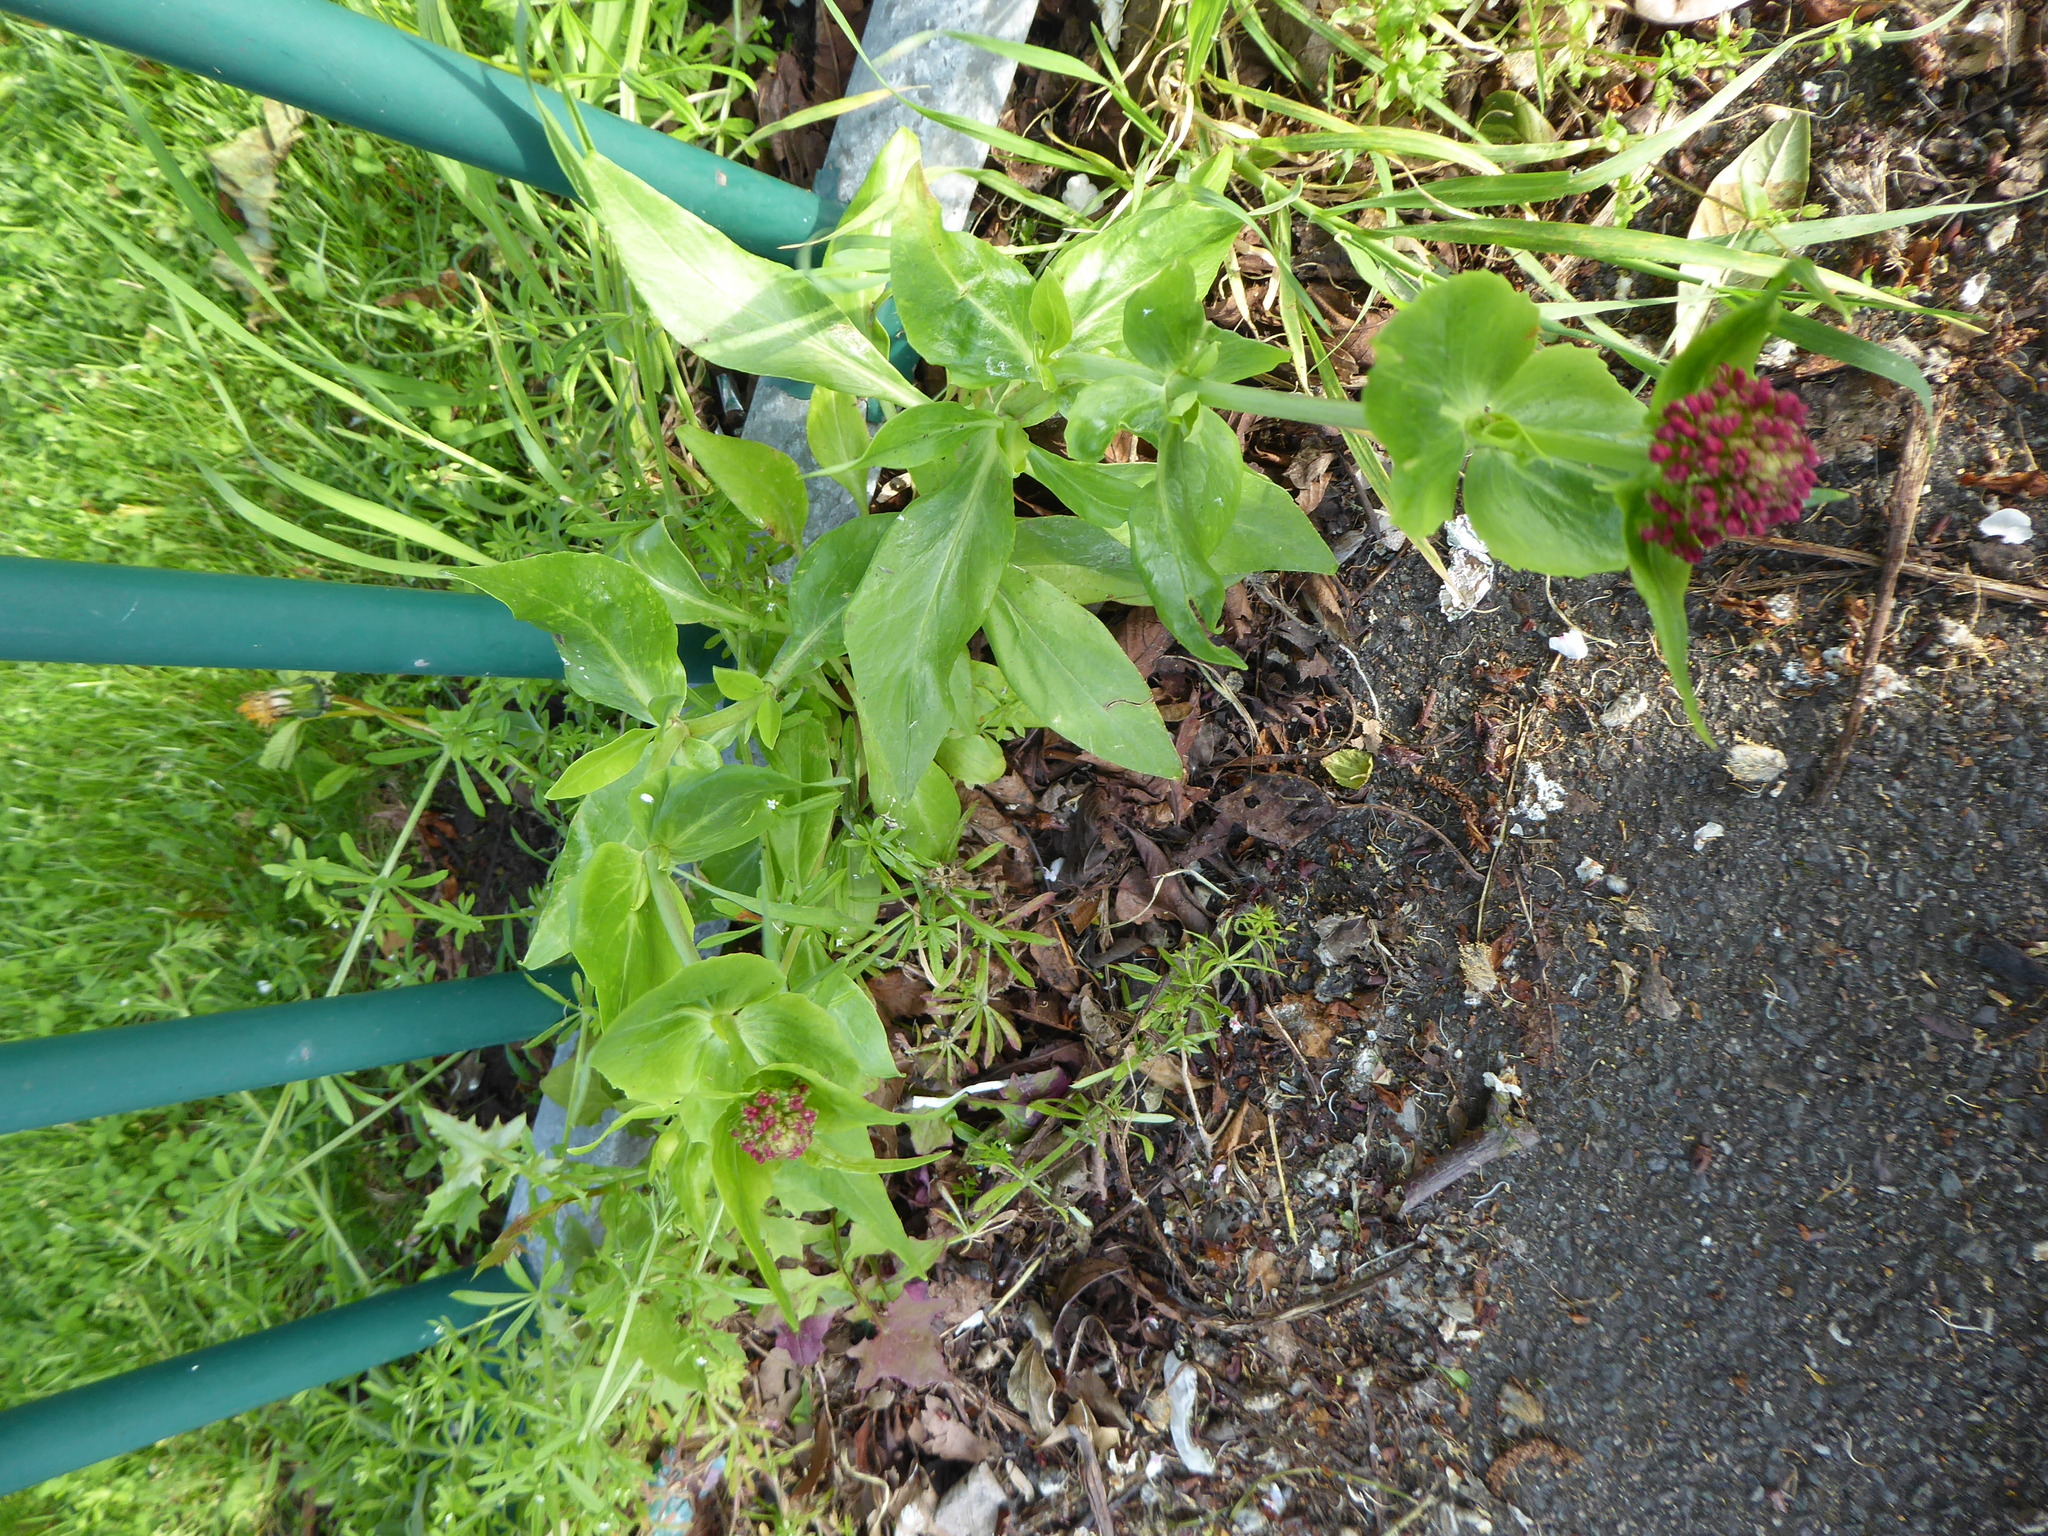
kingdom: Plantae
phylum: Tracheophyta
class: Magnoliopsida
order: Dipsacales
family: Caprifoliaceae
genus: Centranthus
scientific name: Centranthus ruber
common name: Red valerian
